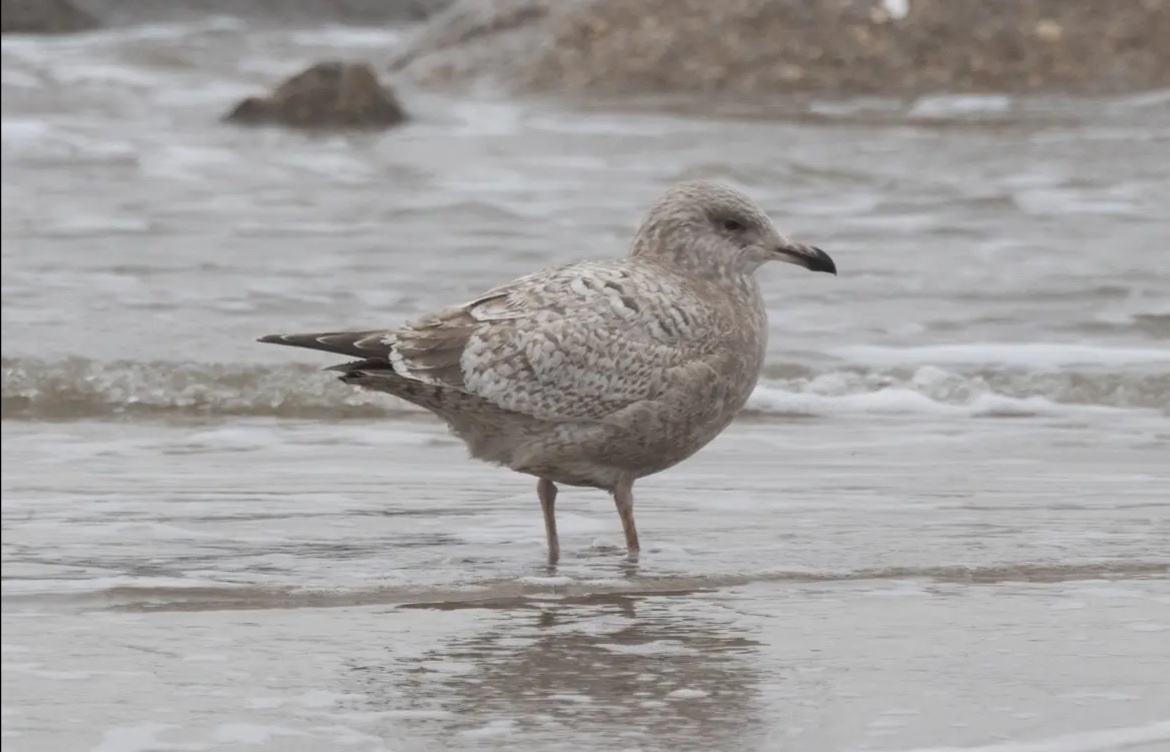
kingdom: Animalia
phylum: Chordata
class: Aves
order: Charadriiformes
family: Laridae
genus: Larus
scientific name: Larus argentatus
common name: Herring gull
